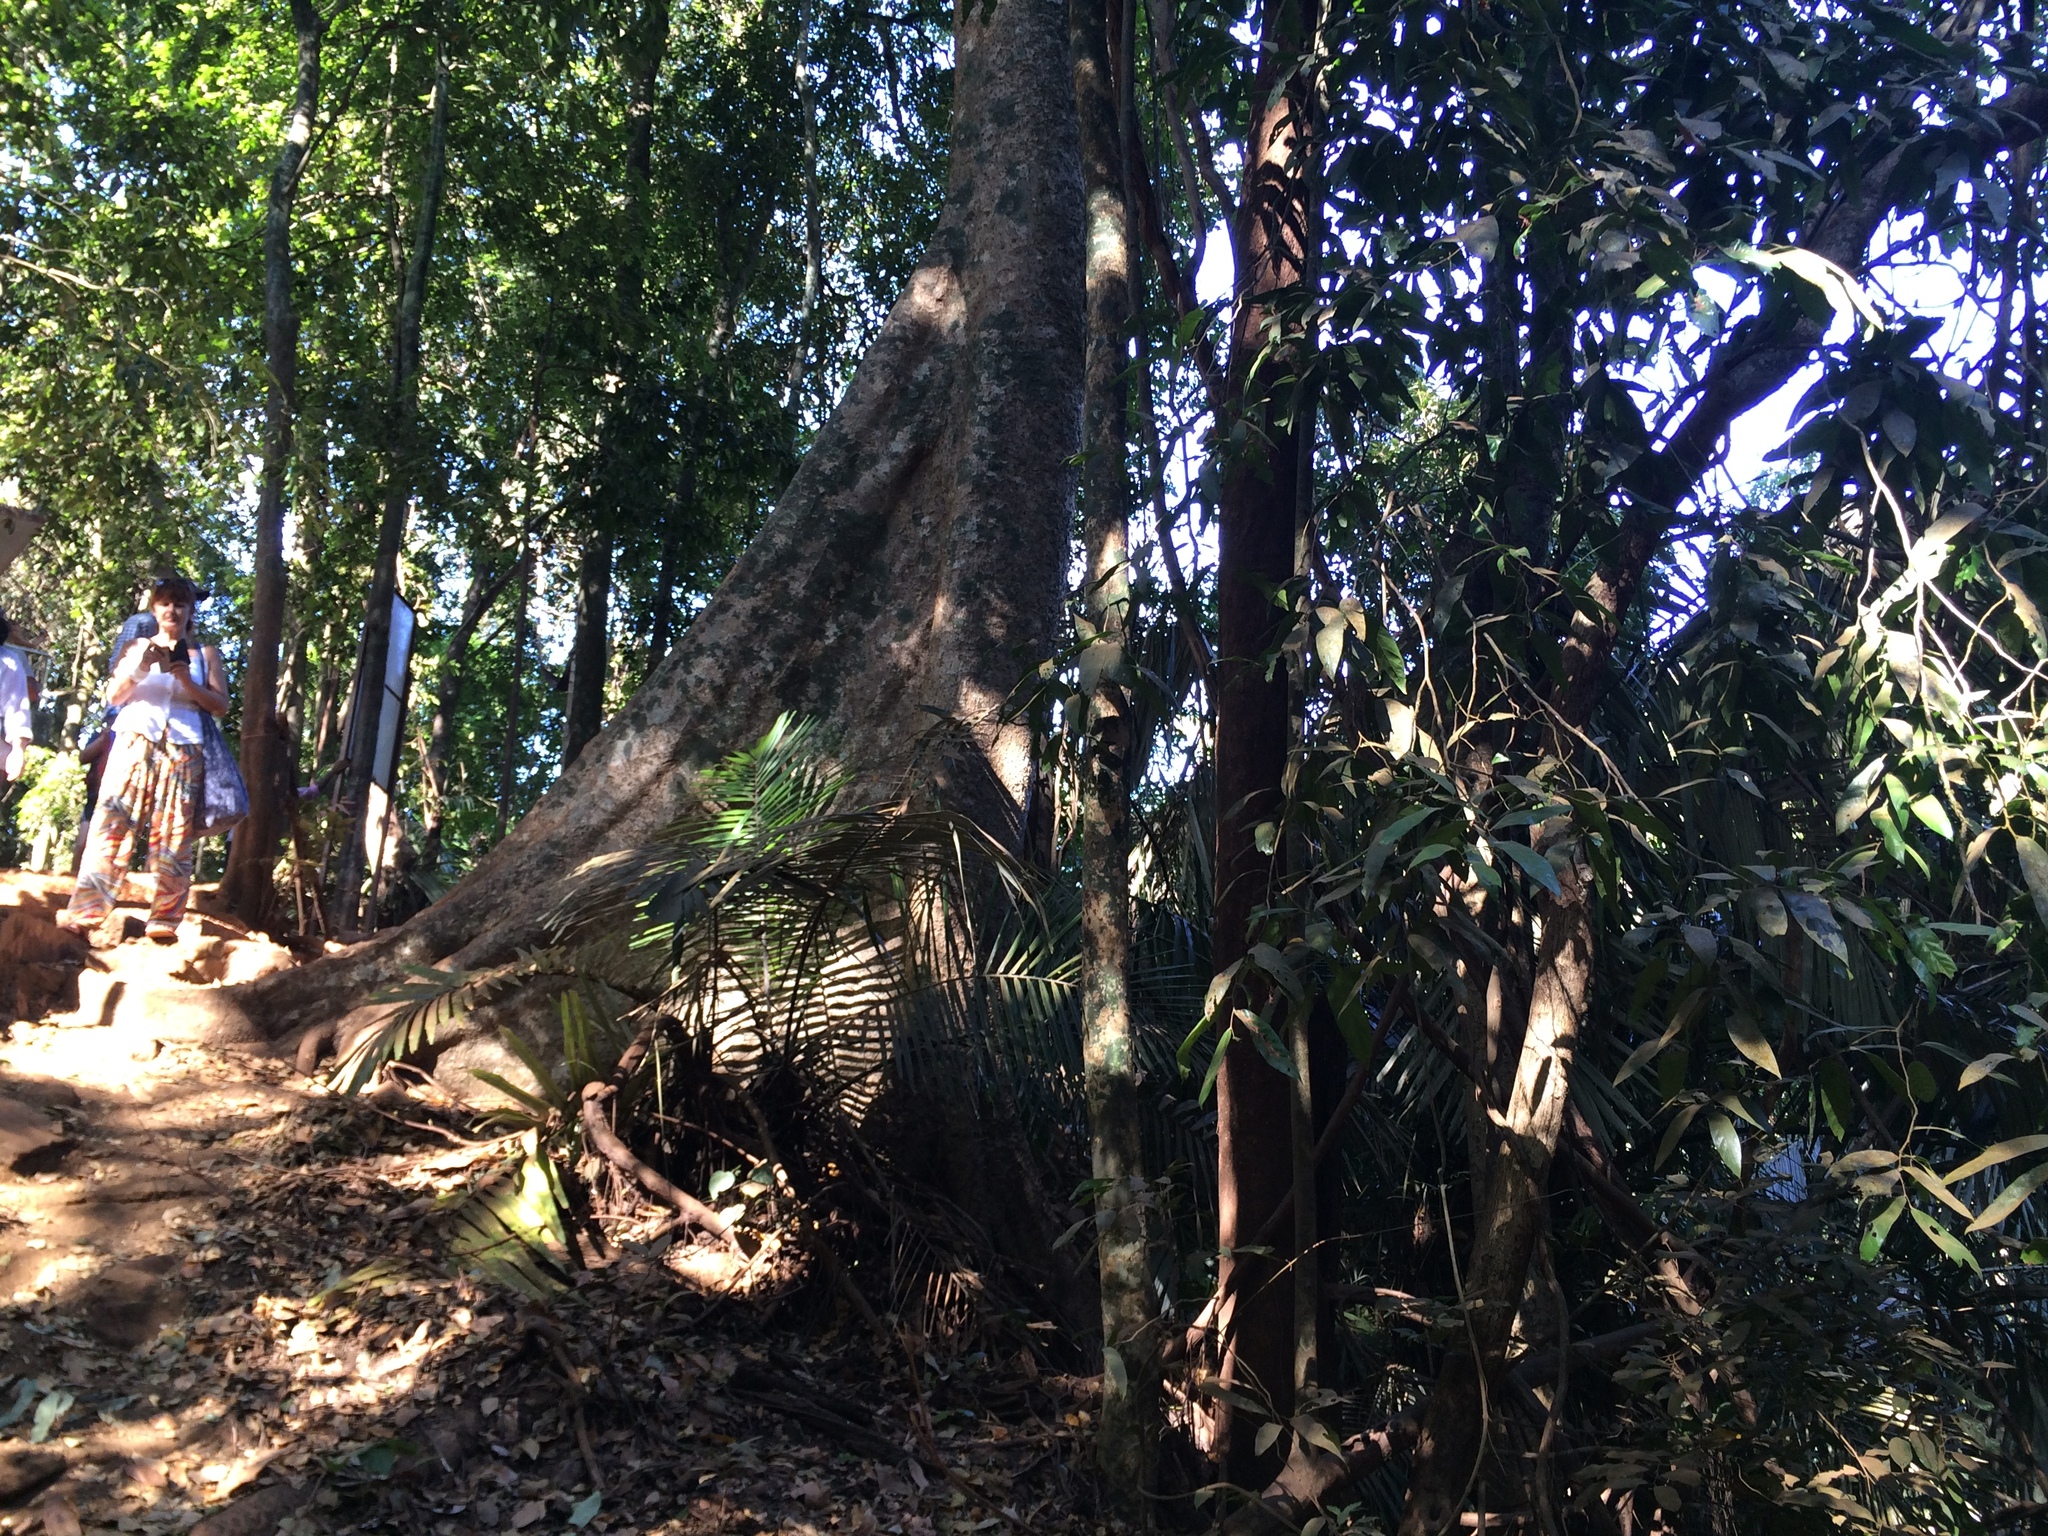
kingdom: Plantae
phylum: Tracheophyta
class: Magnoliopsida
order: Cucurbitales
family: Tetramelaceae
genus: Tetrameles
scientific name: Tetrameles nudiflora
